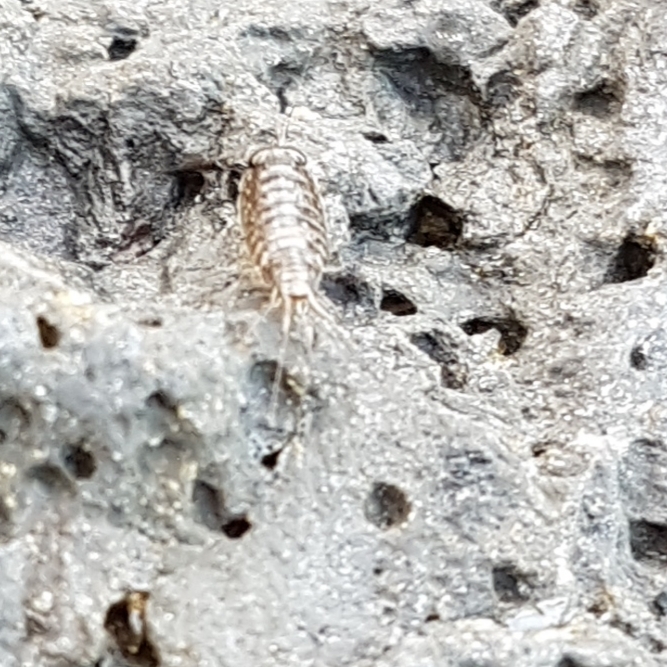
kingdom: Animalia
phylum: Arthropoda
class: Malacostraca
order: Isopoda
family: Ligiidae
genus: Ligia
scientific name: Ligia italica
